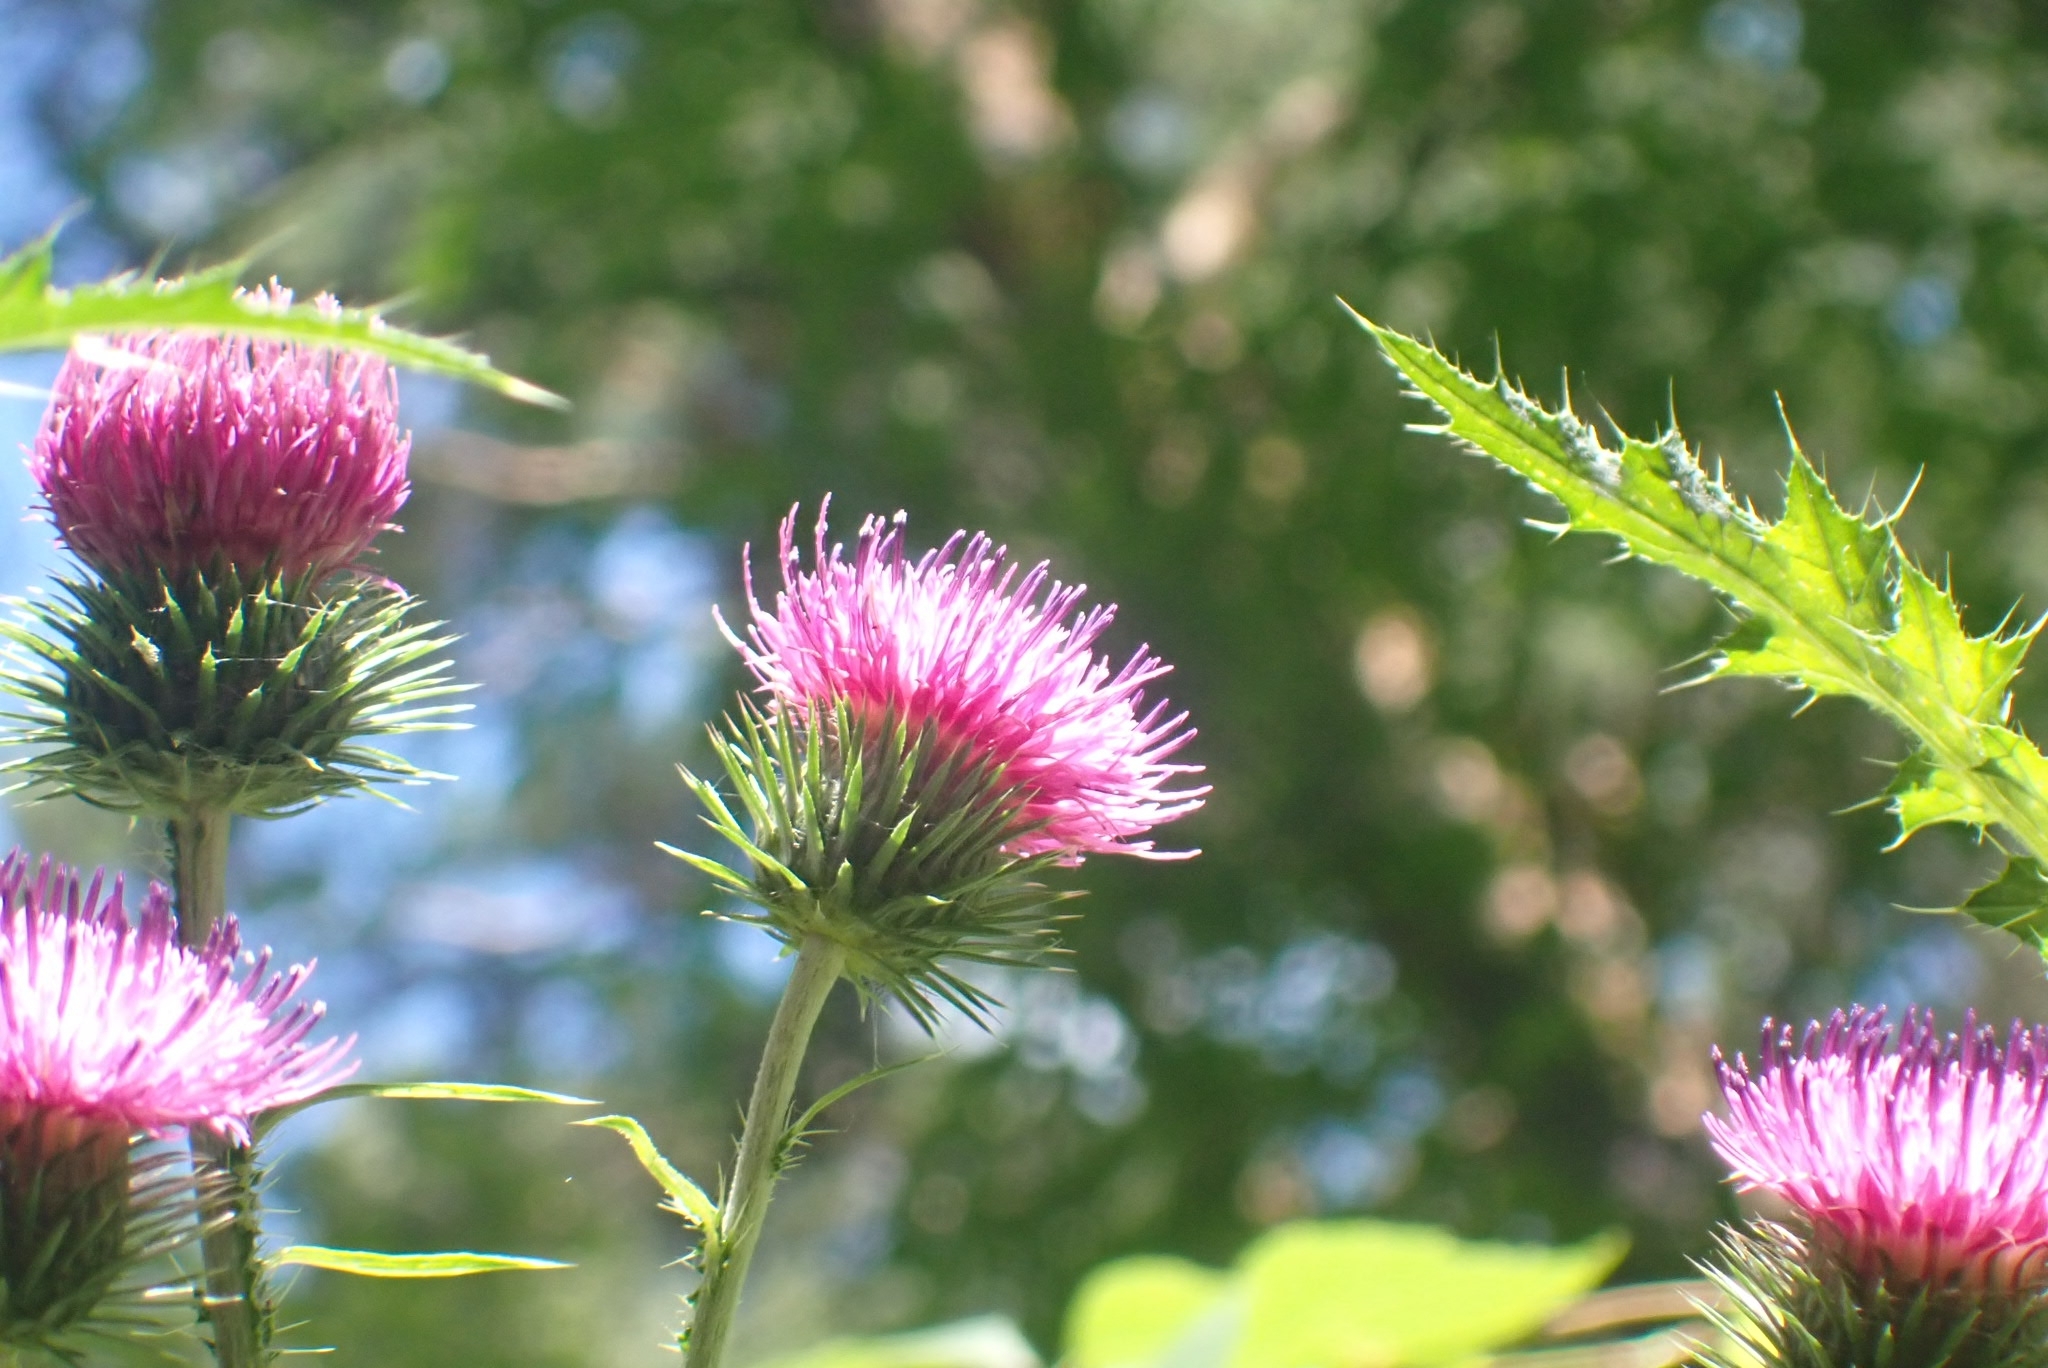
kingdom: Plantae
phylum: Tracheophyta
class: Magnoliopsida
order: Asterales
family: Asteraceae
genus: Carduus
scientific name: Carduus crispus
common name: Welted thistle
